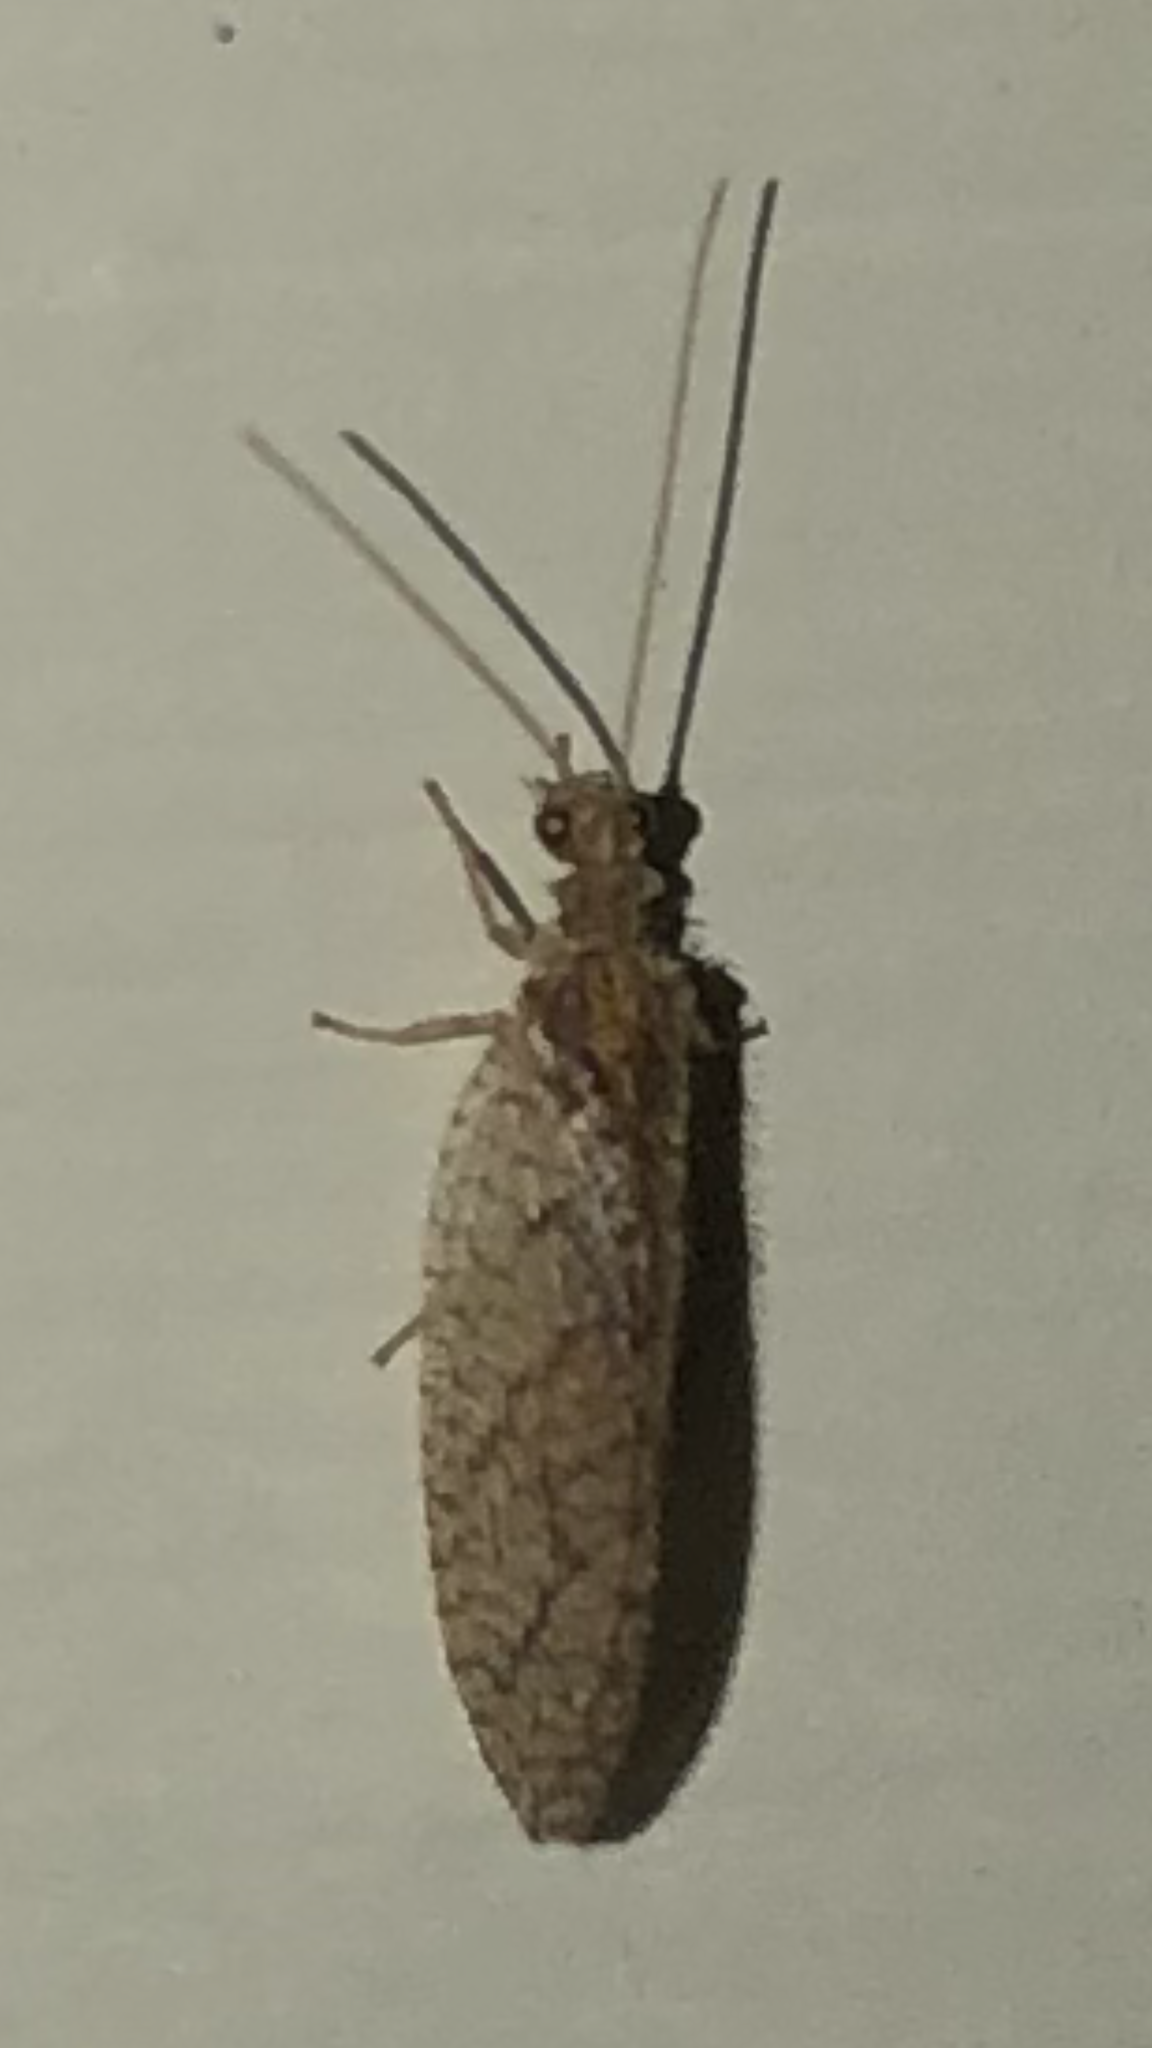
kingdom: Animalia
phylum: Arthropoda
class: Insecta
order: Neuroptera
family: Hemerobiidae
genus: Micromus
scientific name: Micromus posticus
